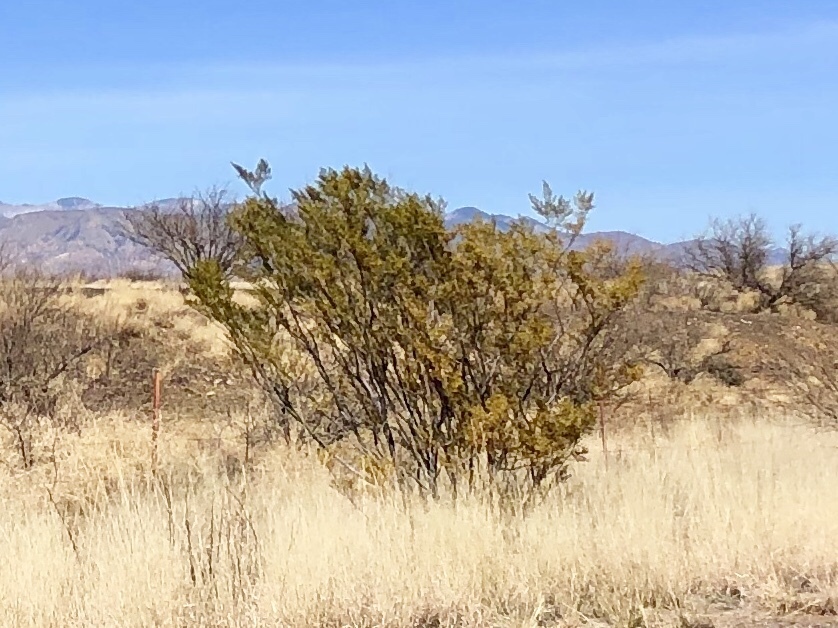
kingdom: Plantae
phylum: Tracheophyta
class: Magnoliopsida
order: Zygophyllales
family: Zygophyllaceae
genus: Larrea
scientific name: Larrea tridentata
